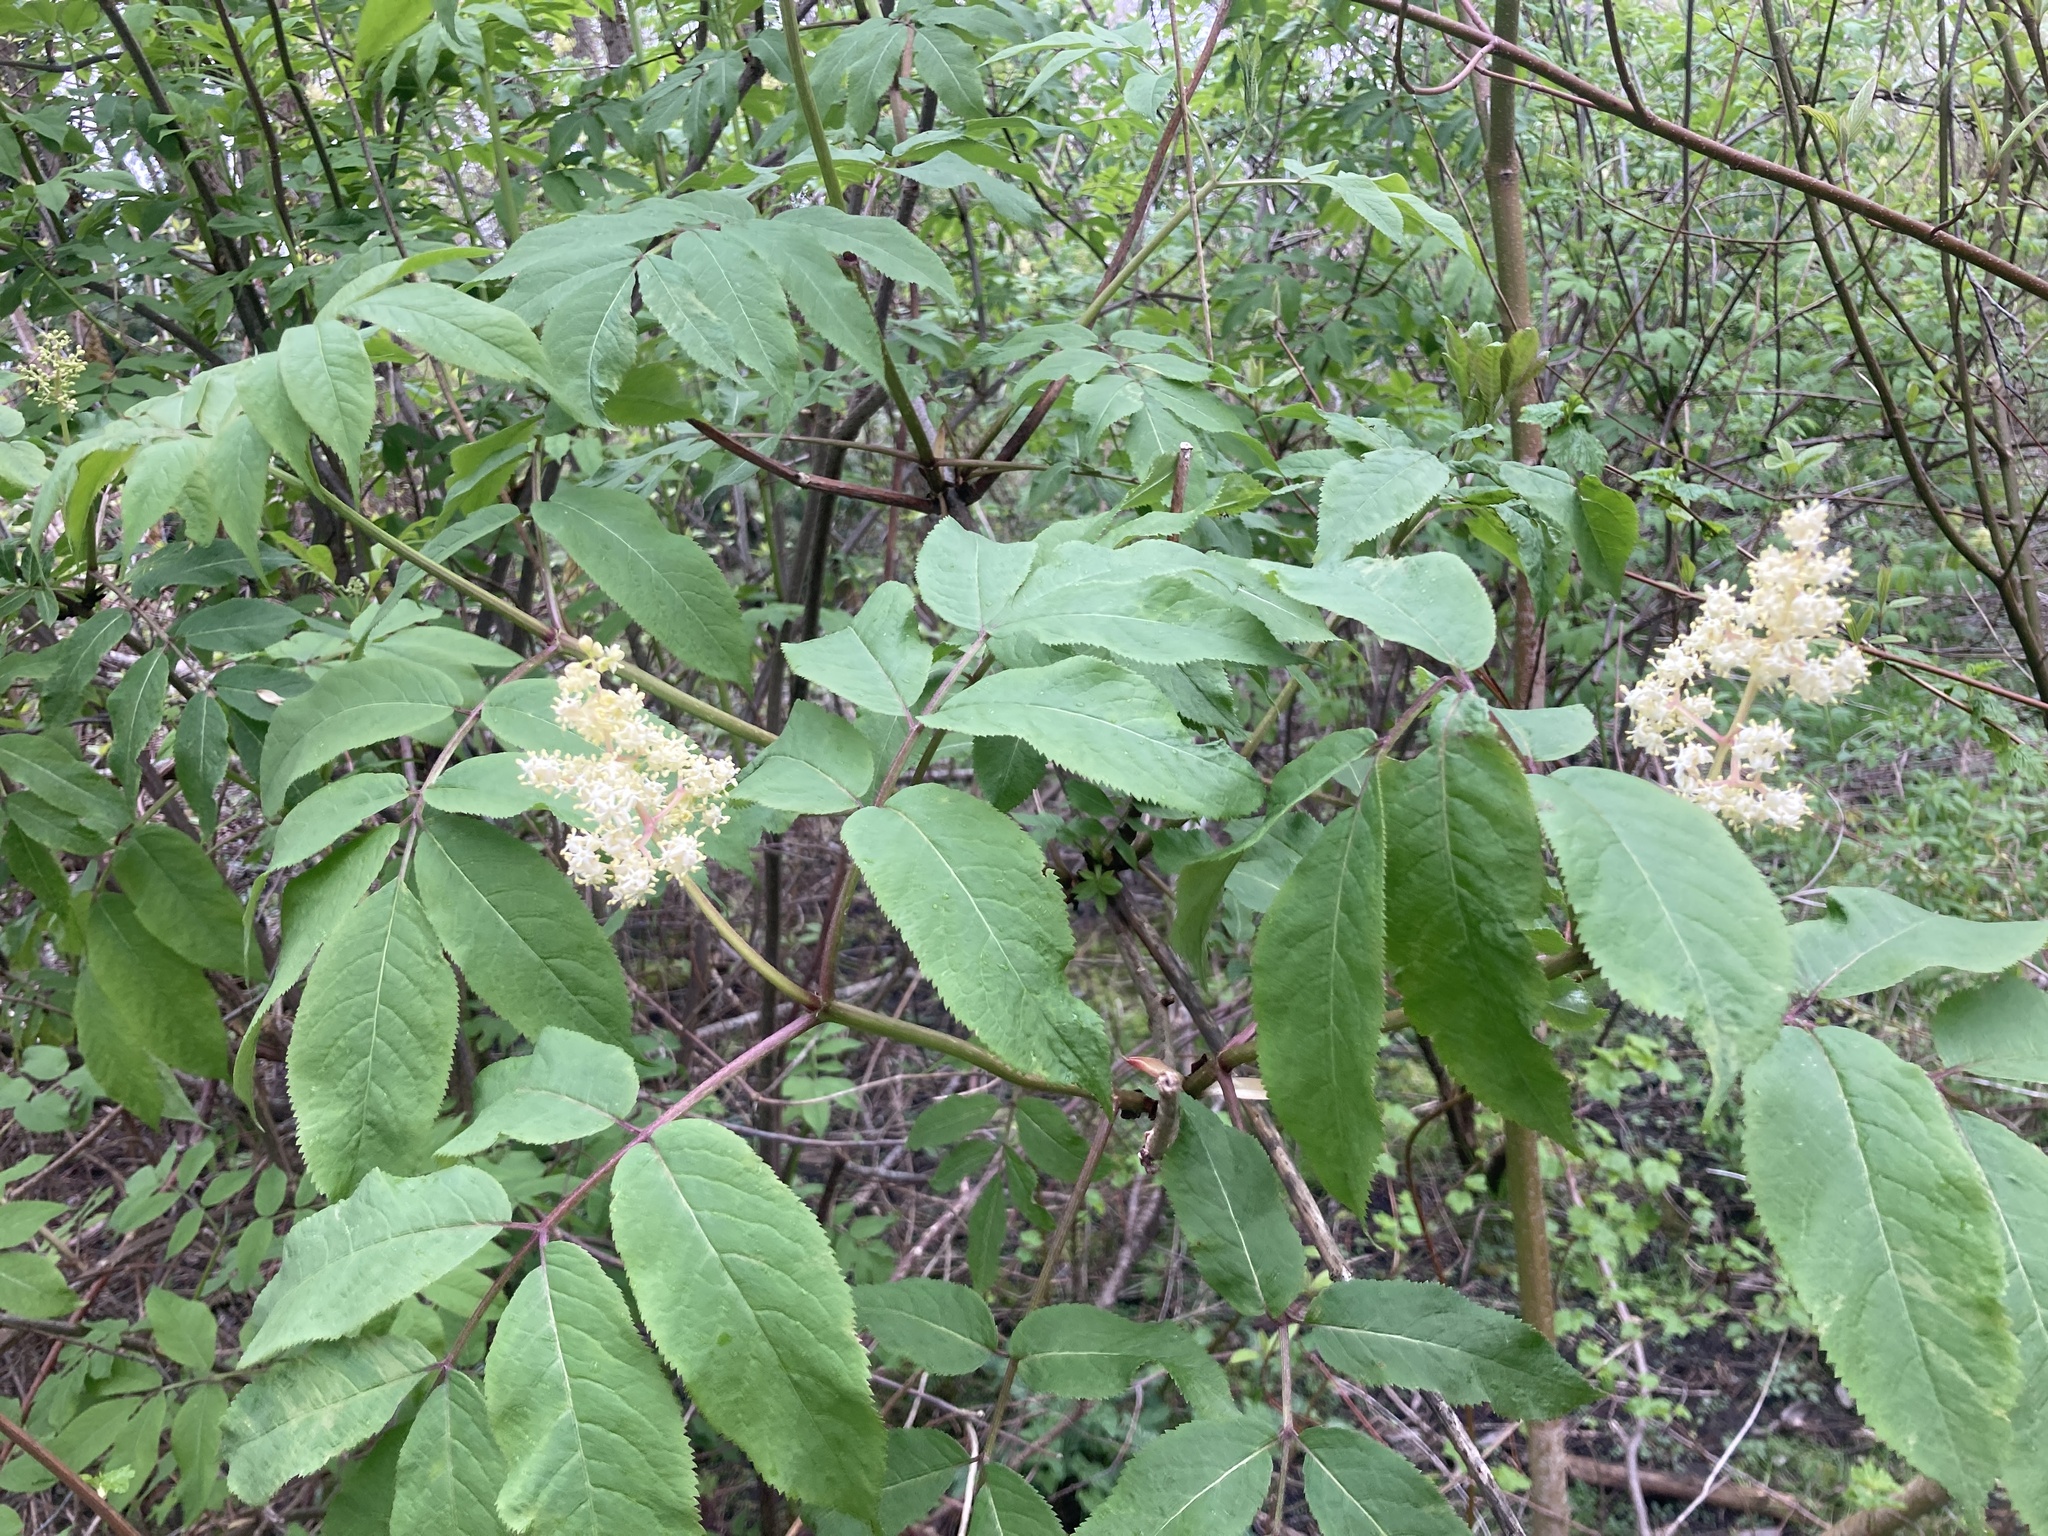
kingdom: Plantae
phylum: Tracheophyta
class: Magnoliopsida
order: Dipsacales
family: Viburnaceae
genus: Sambucus
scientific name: Sambucus racemosa
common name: Red-berried elder
